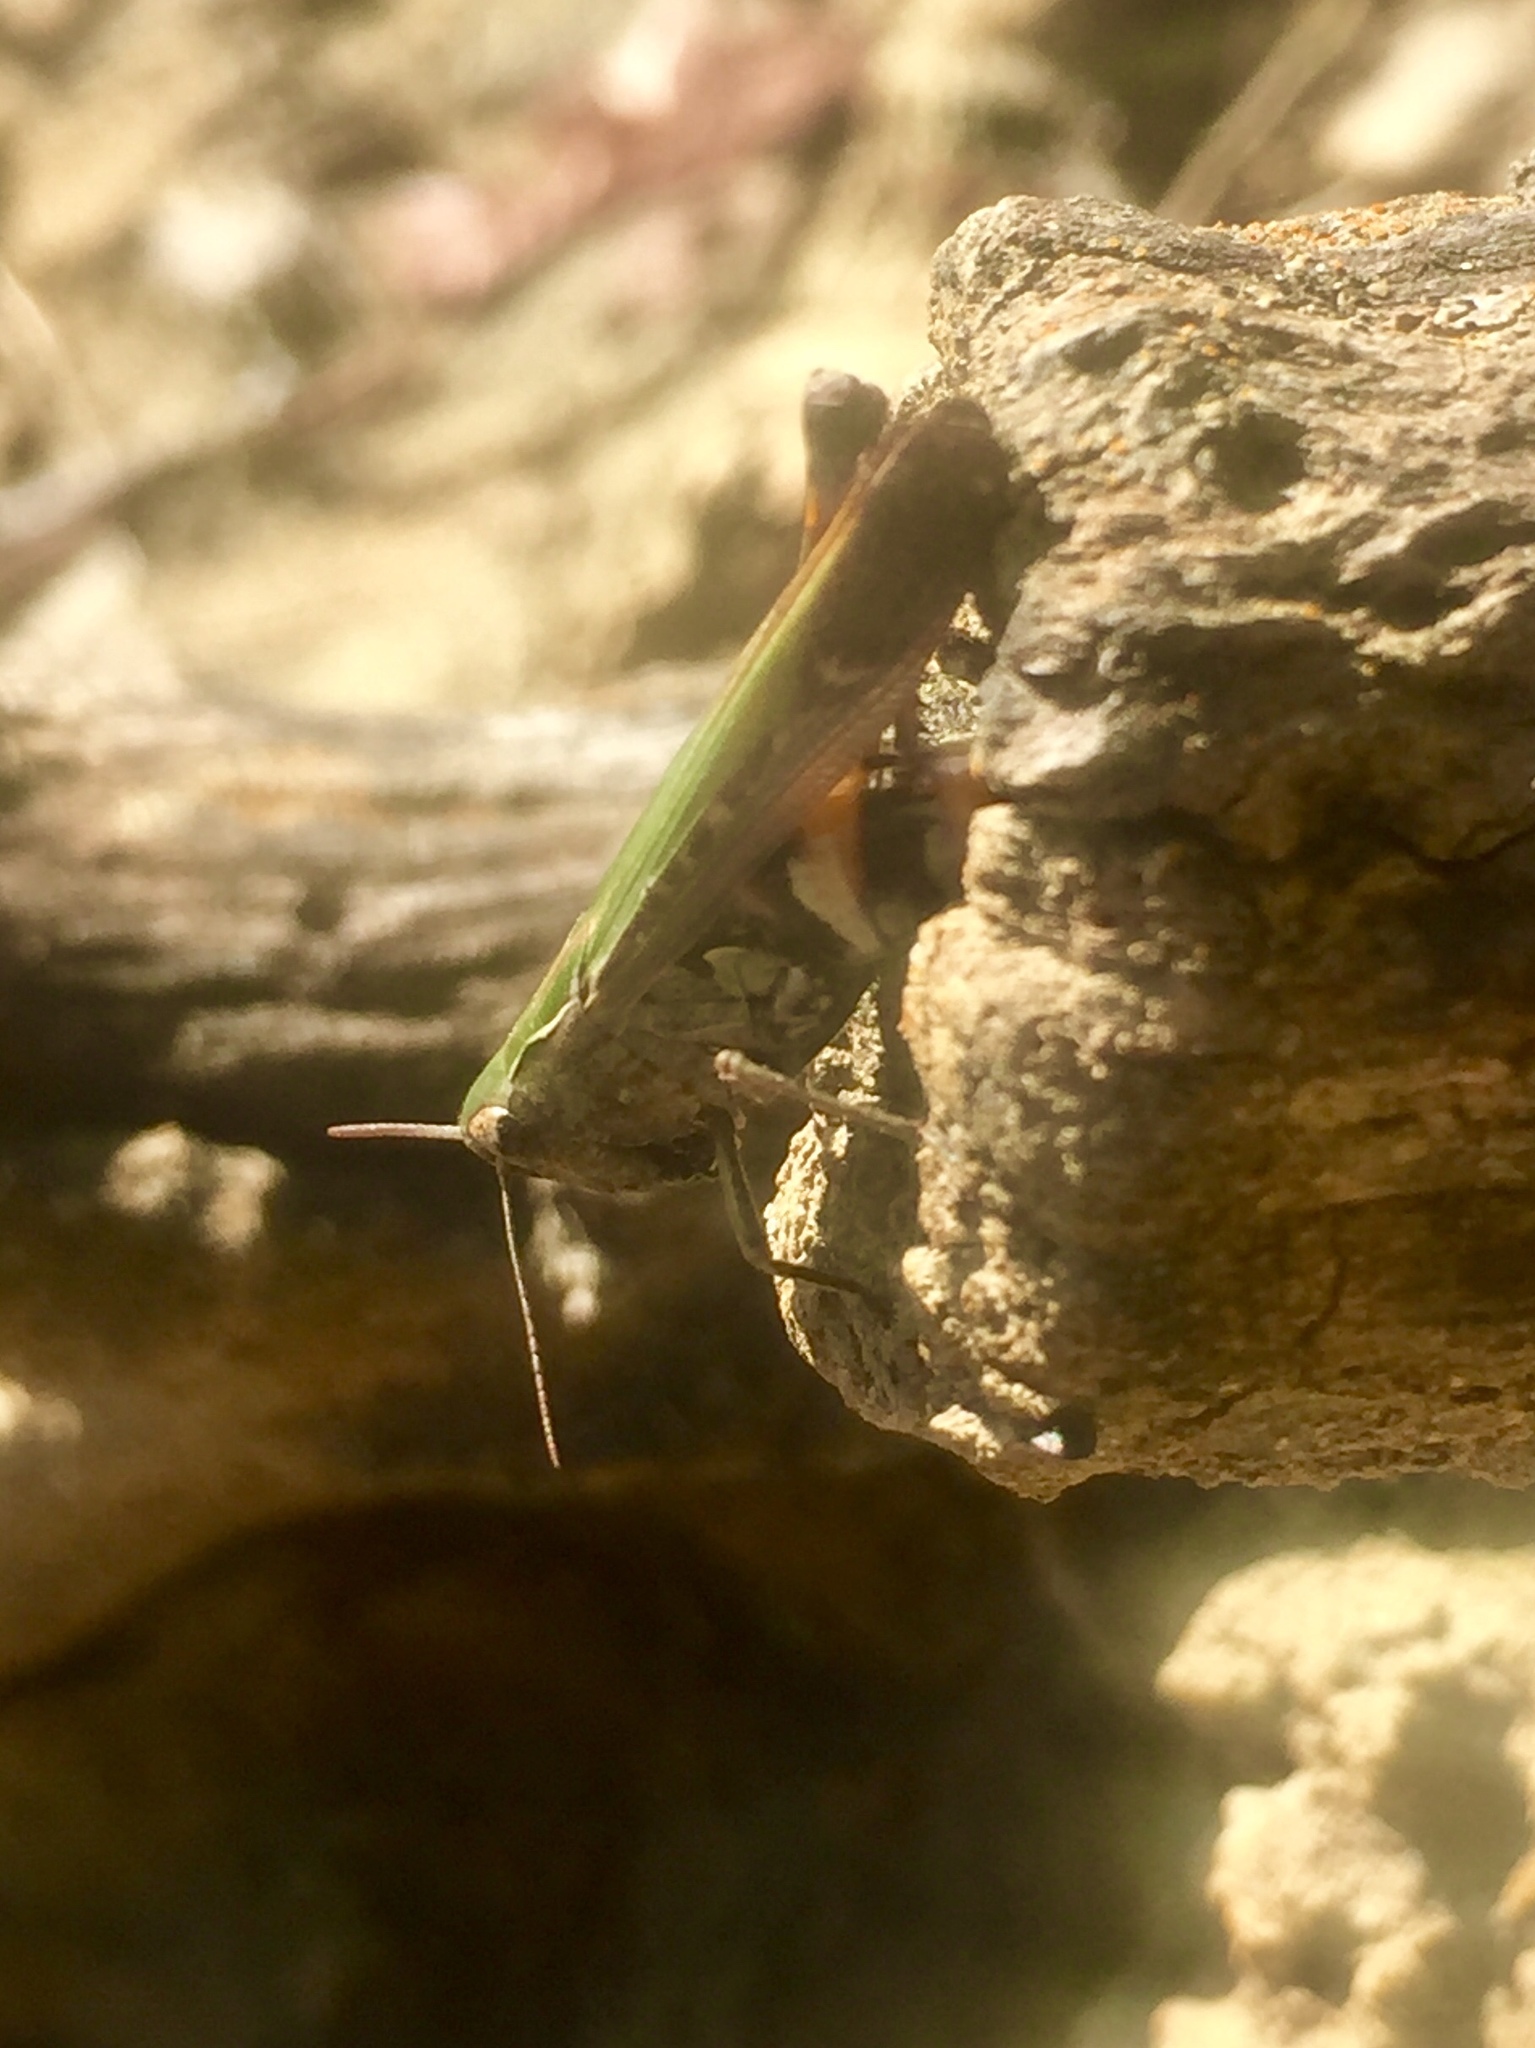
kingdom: Animalia
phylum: Arthropoda
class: Insecta
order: Orthoptera
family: Acrididae
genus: Omocestus
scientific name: Omocestus rufipes
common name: Woodland grasshopper
